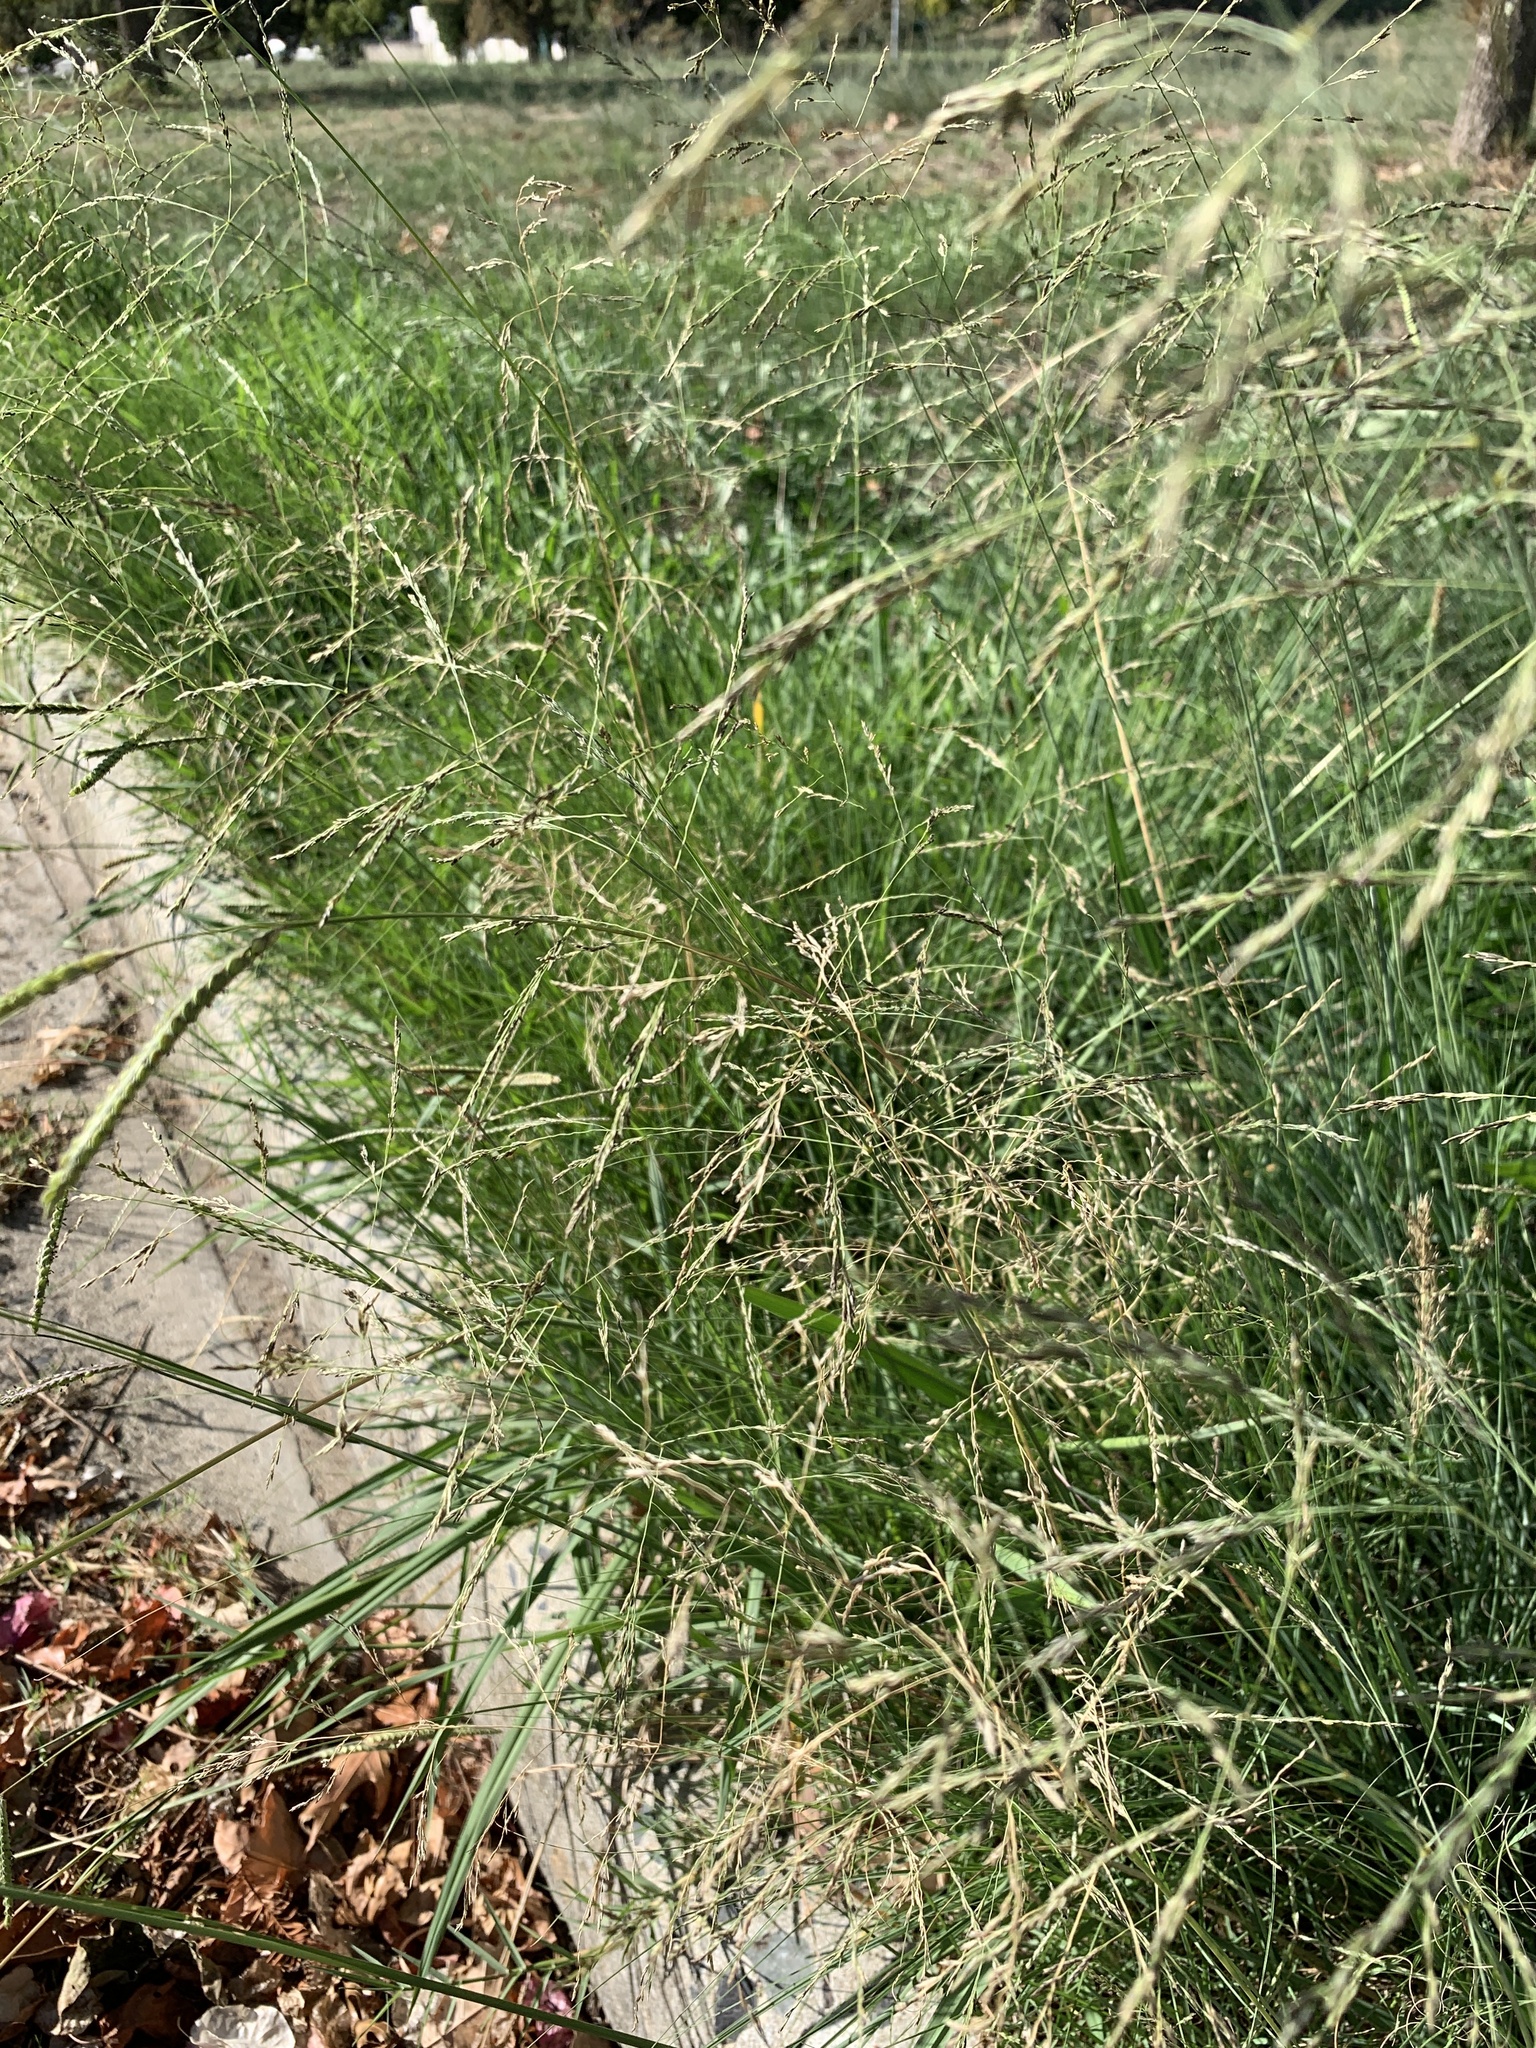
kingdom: Plantae
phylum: Tracheophyta
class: Liliopsida
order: Poales
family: Poaceae
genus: Eragrostis
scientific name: Eragrostis curvula
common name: African love-grass
